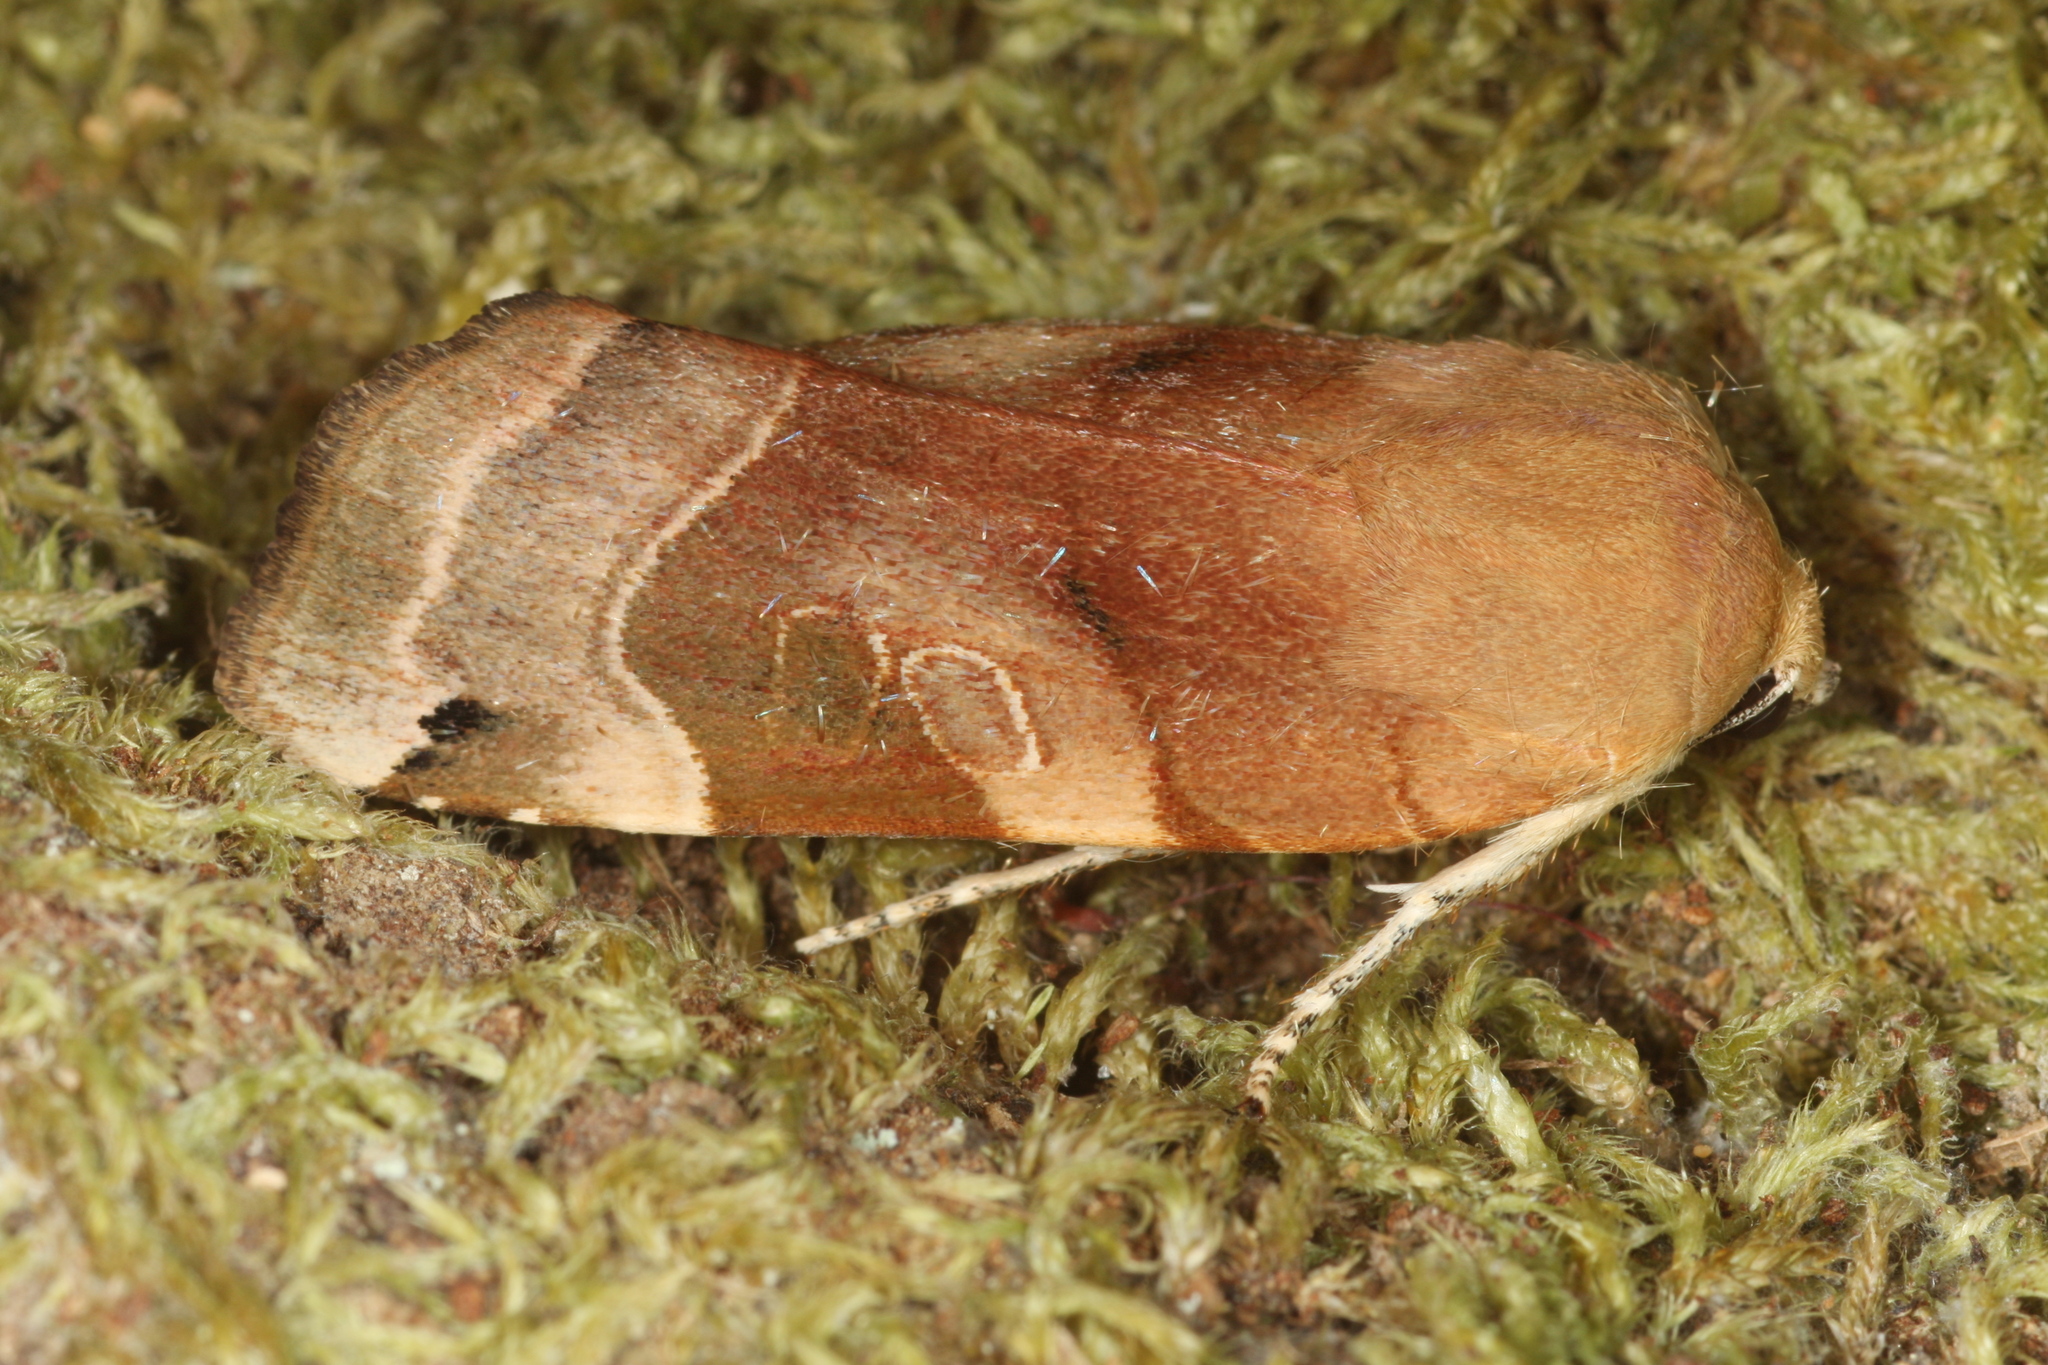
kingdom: Animalia
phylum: Arthropoda
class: Insecta
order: Lepidoptera
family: Noctuidae
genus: Noctua
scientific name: Noctua fimbriata
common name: Broad-bordered yellow underwing
